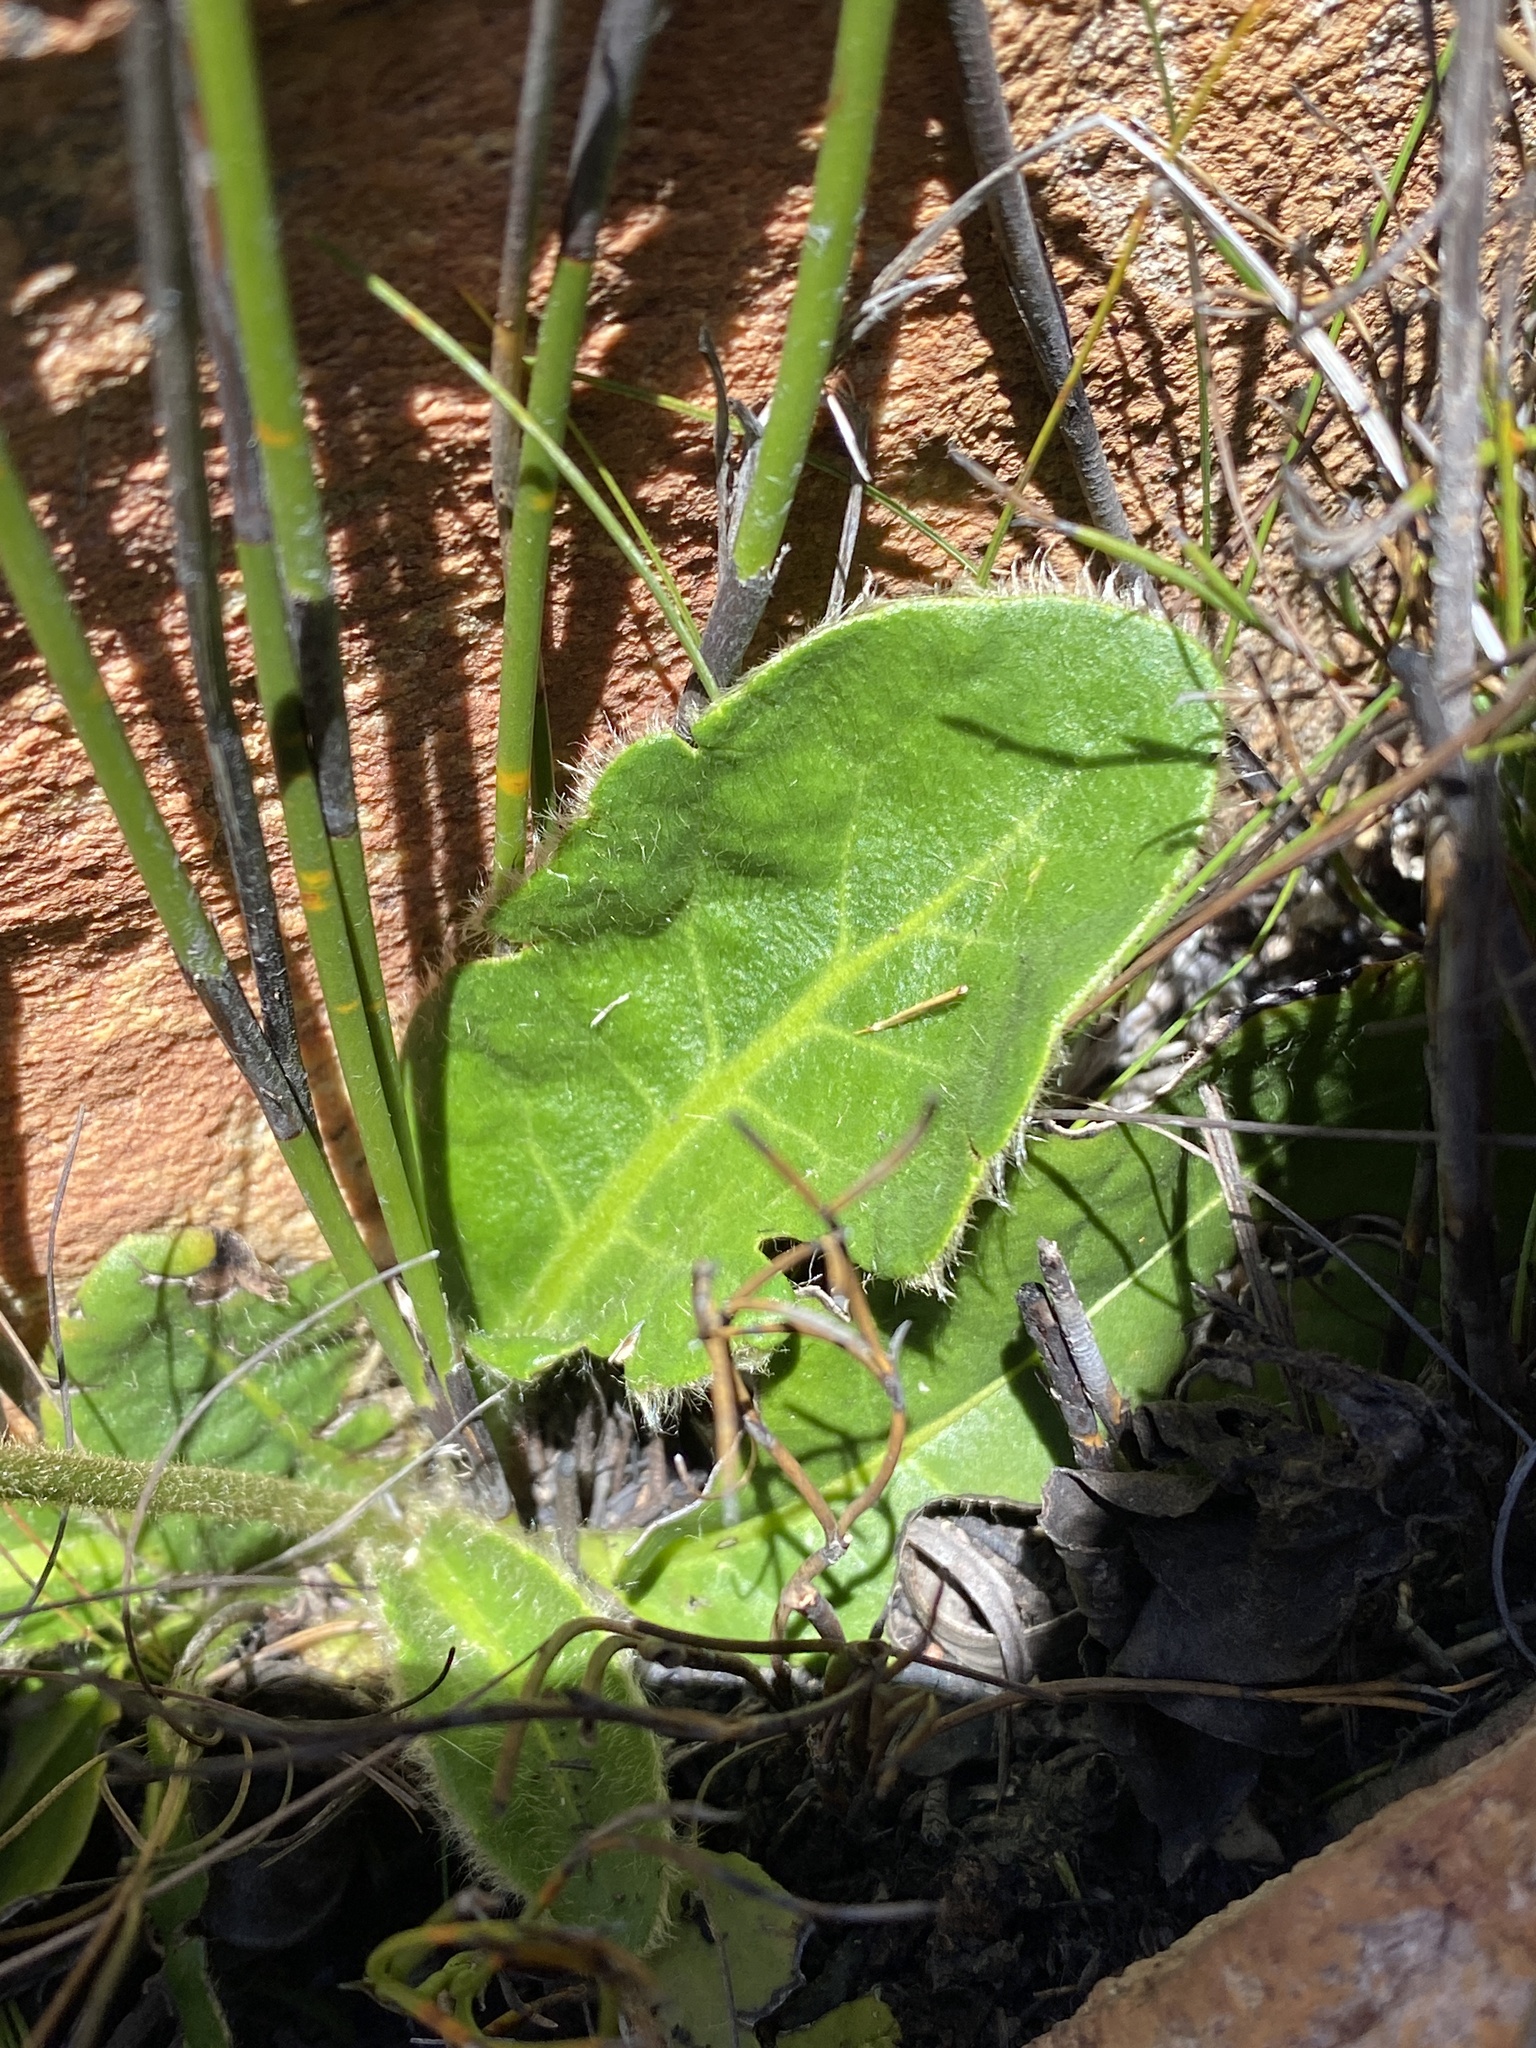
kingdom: Plantae
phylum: Tracheophyta
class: Magnoliopsida
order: Asterales
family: Asteraceae
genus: Piloselloides
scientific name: Piloselloides hirsuta
